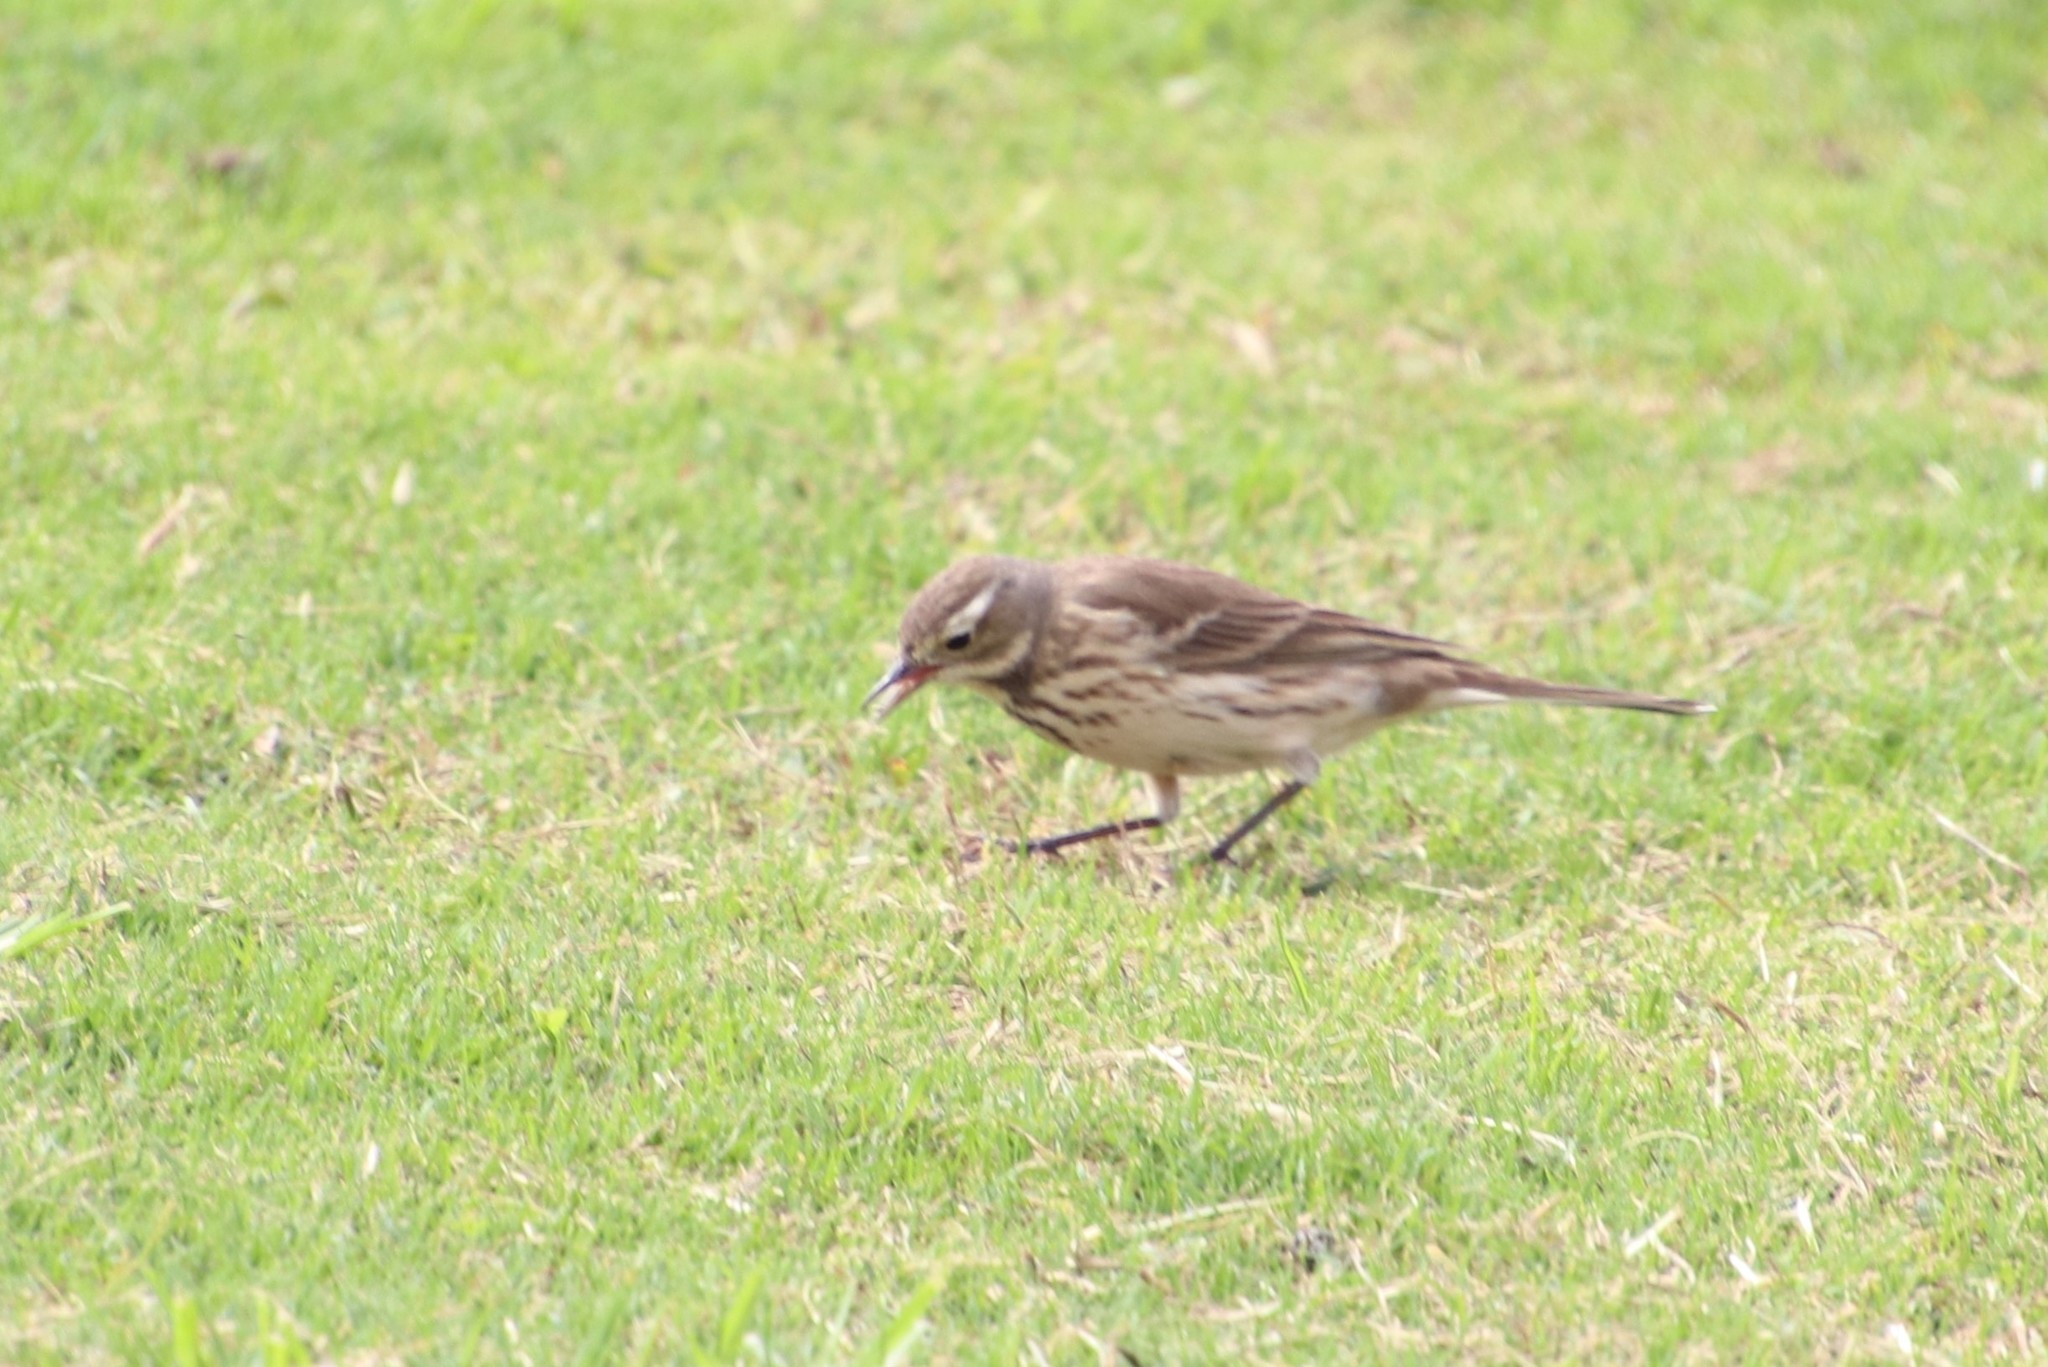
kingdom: Animalia
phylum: Chordata
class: Aves
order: Passeriformes
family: Motacillidae
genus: Anthus
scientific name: Anthus rubescens
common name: Buff-bellied pipit
